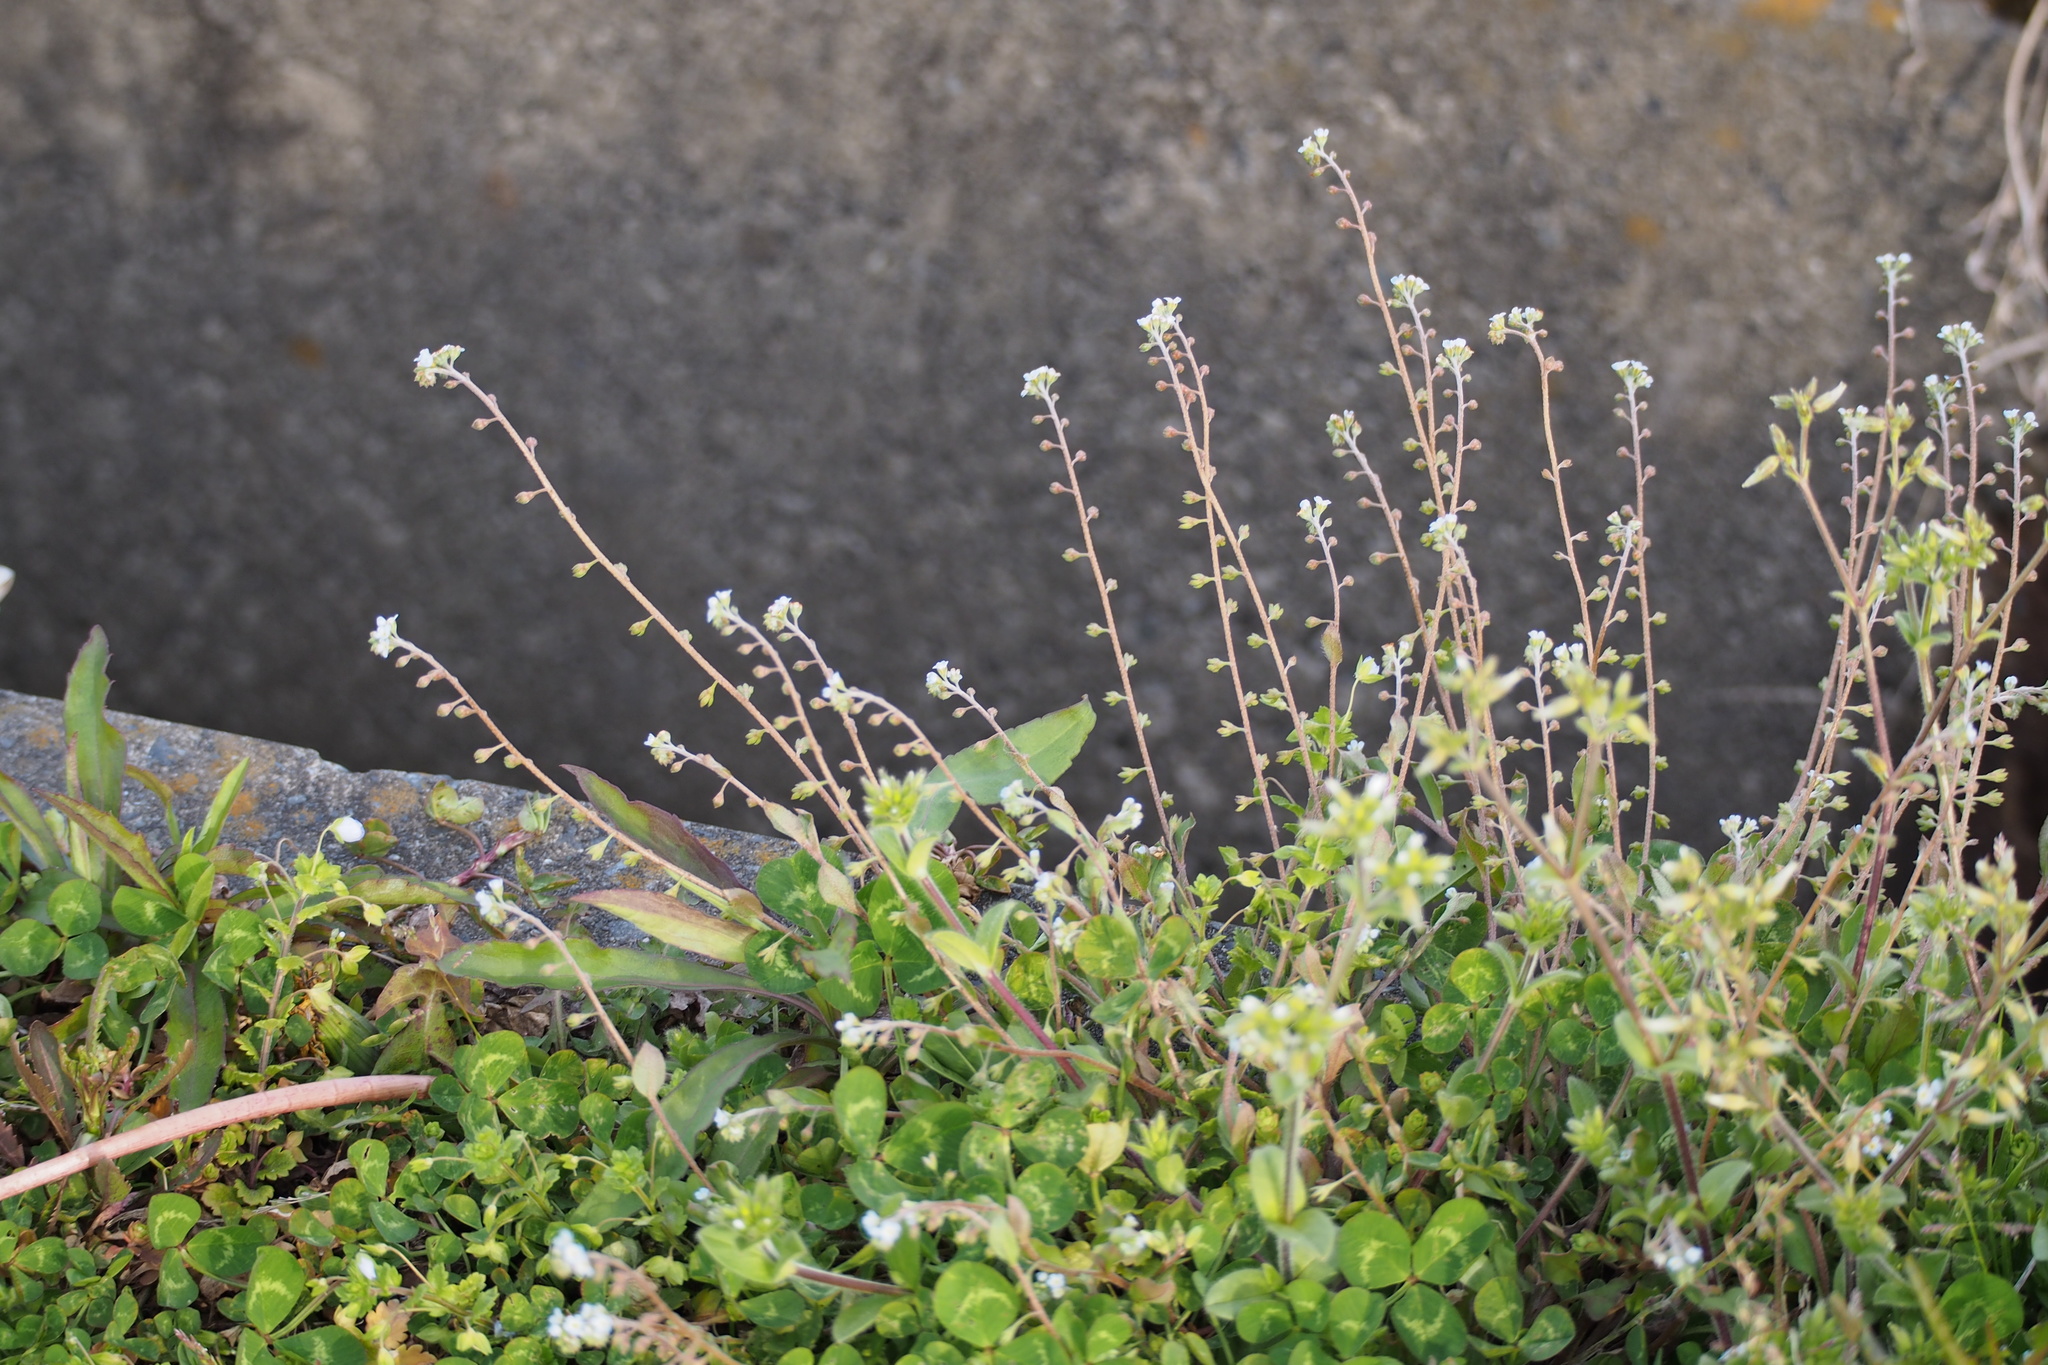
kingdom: Plantae
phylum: Tracheophyta
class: Magnoliopsida
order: Boraginales
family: Boraginaceae
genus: Trigonotis
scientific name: Trigonotis peduncularis
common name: Cucumber herb
